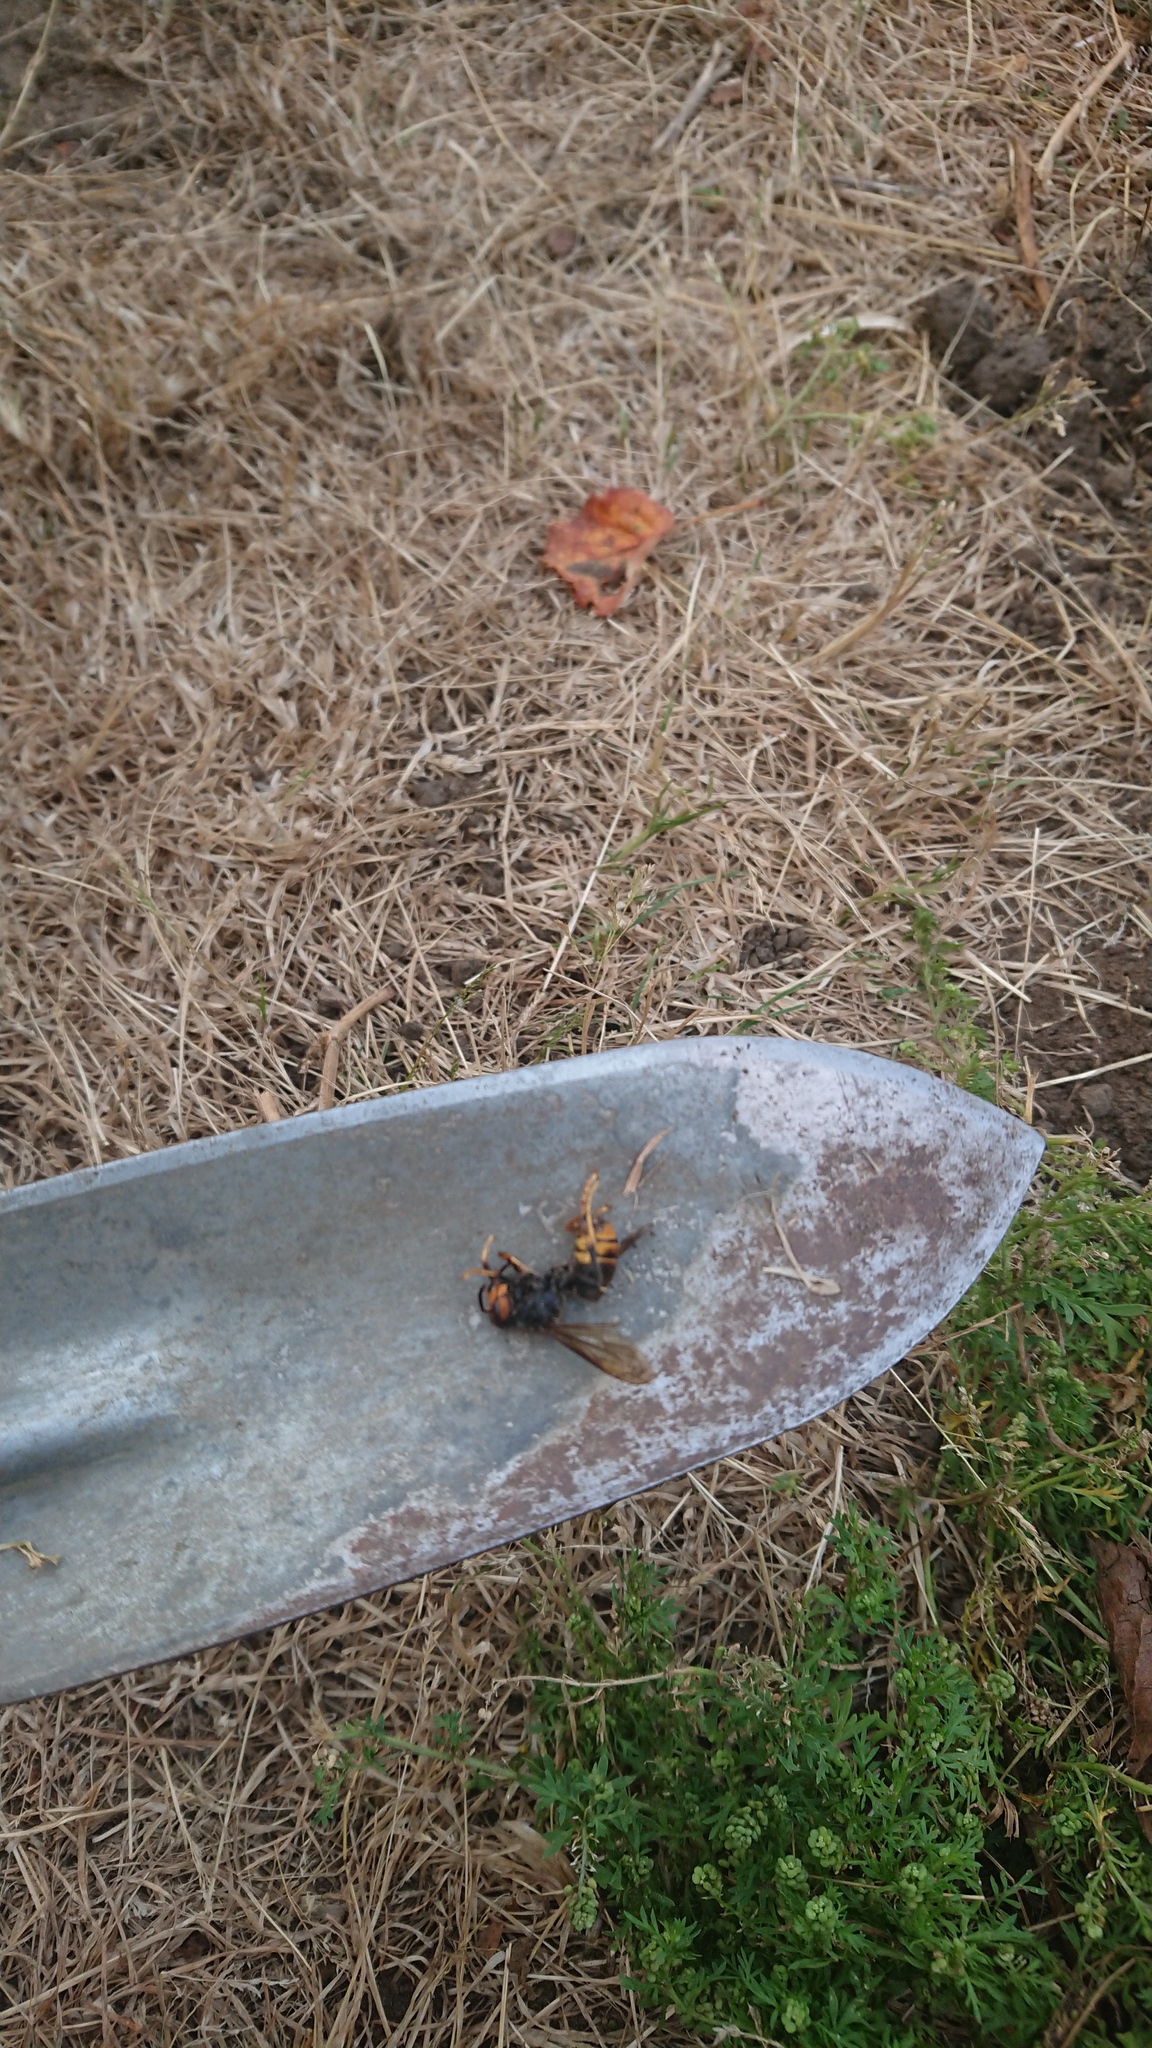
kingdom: Animalia
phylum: Arthropoda
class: Insecta
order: Hymenoptera
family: Vespidae
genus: Vespa
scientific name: Vespa velutina
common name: Asian hornet
